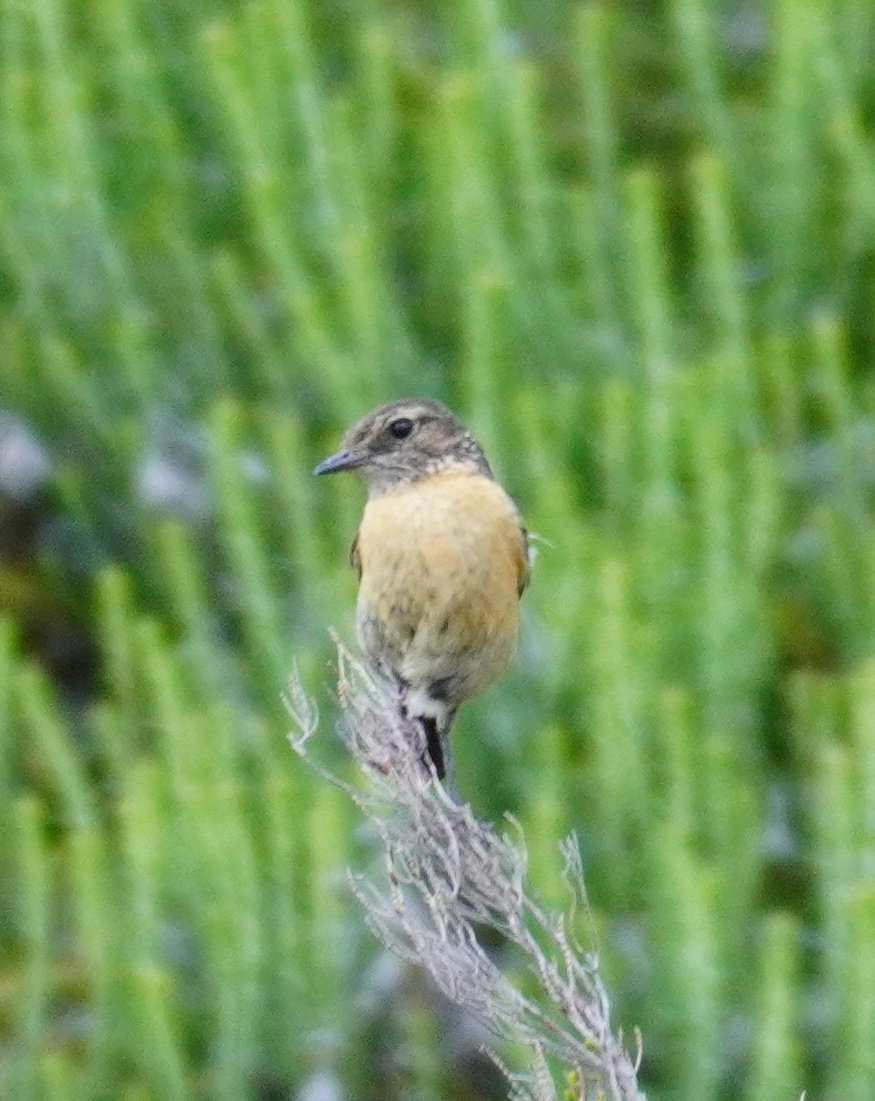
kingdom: Animalia
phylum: Chordata
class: Aves
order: Passeriformes
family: Muscicapidae
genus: Saxicola
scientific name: Saxicola torquatus
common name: African stonechat
